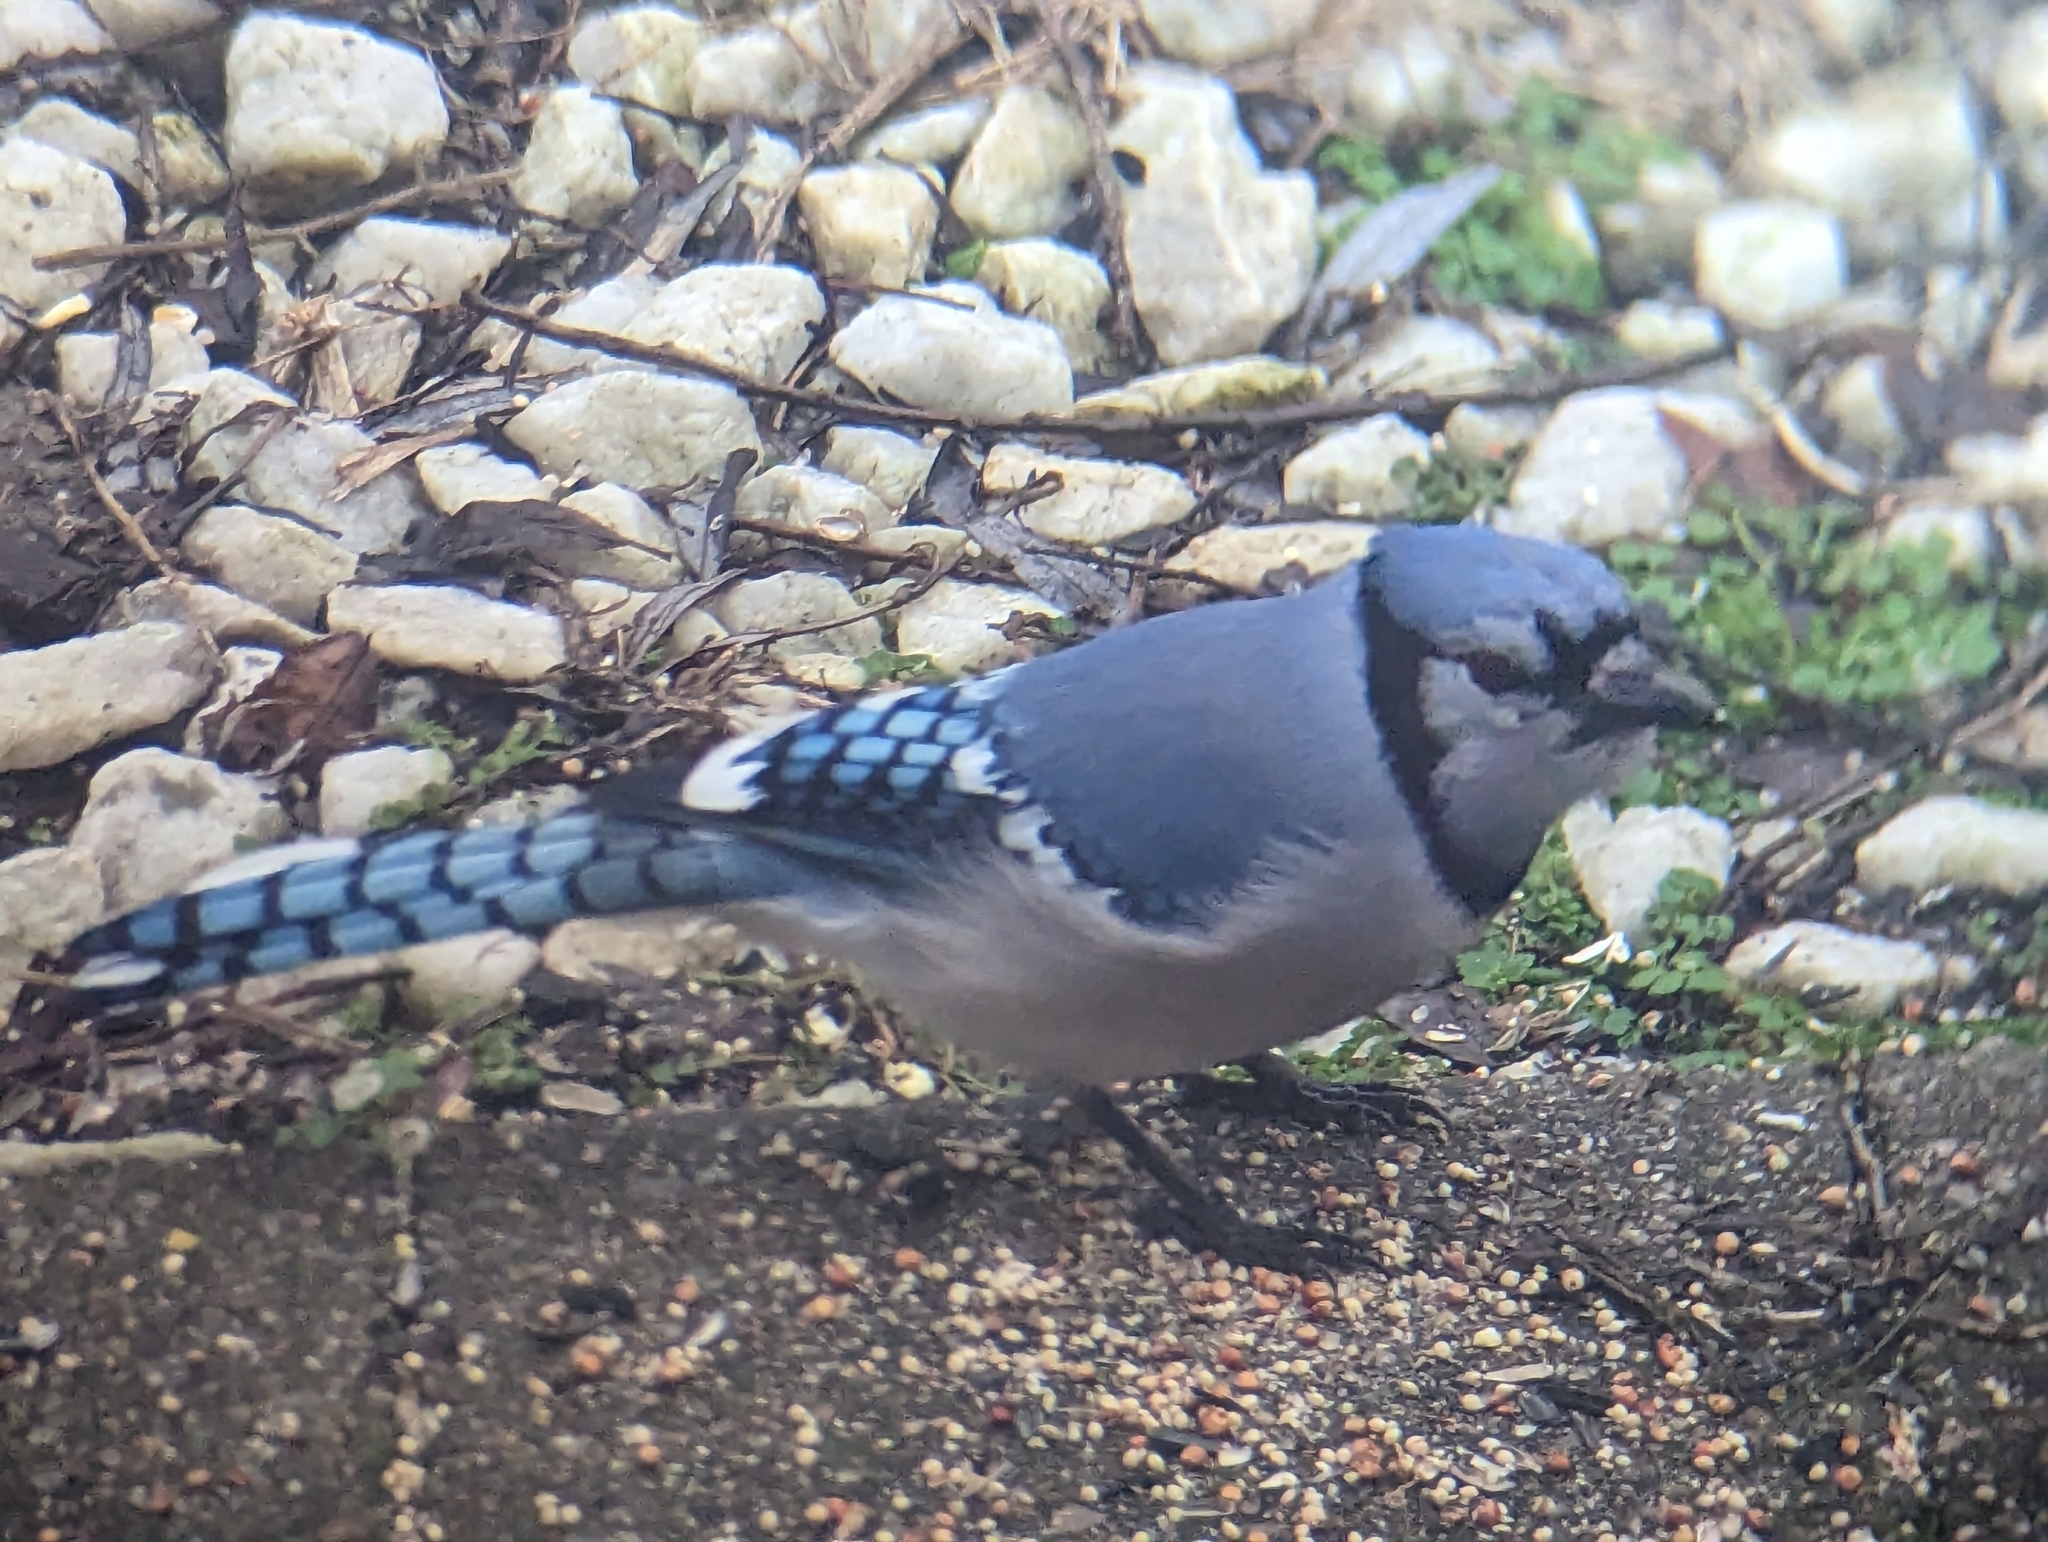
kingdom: Animalia
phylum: Chordata
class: Aves
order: Passeriformes
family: Corvidae
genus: Cyanocitta
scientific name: Cyanocitta cristata
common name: Blue jay
